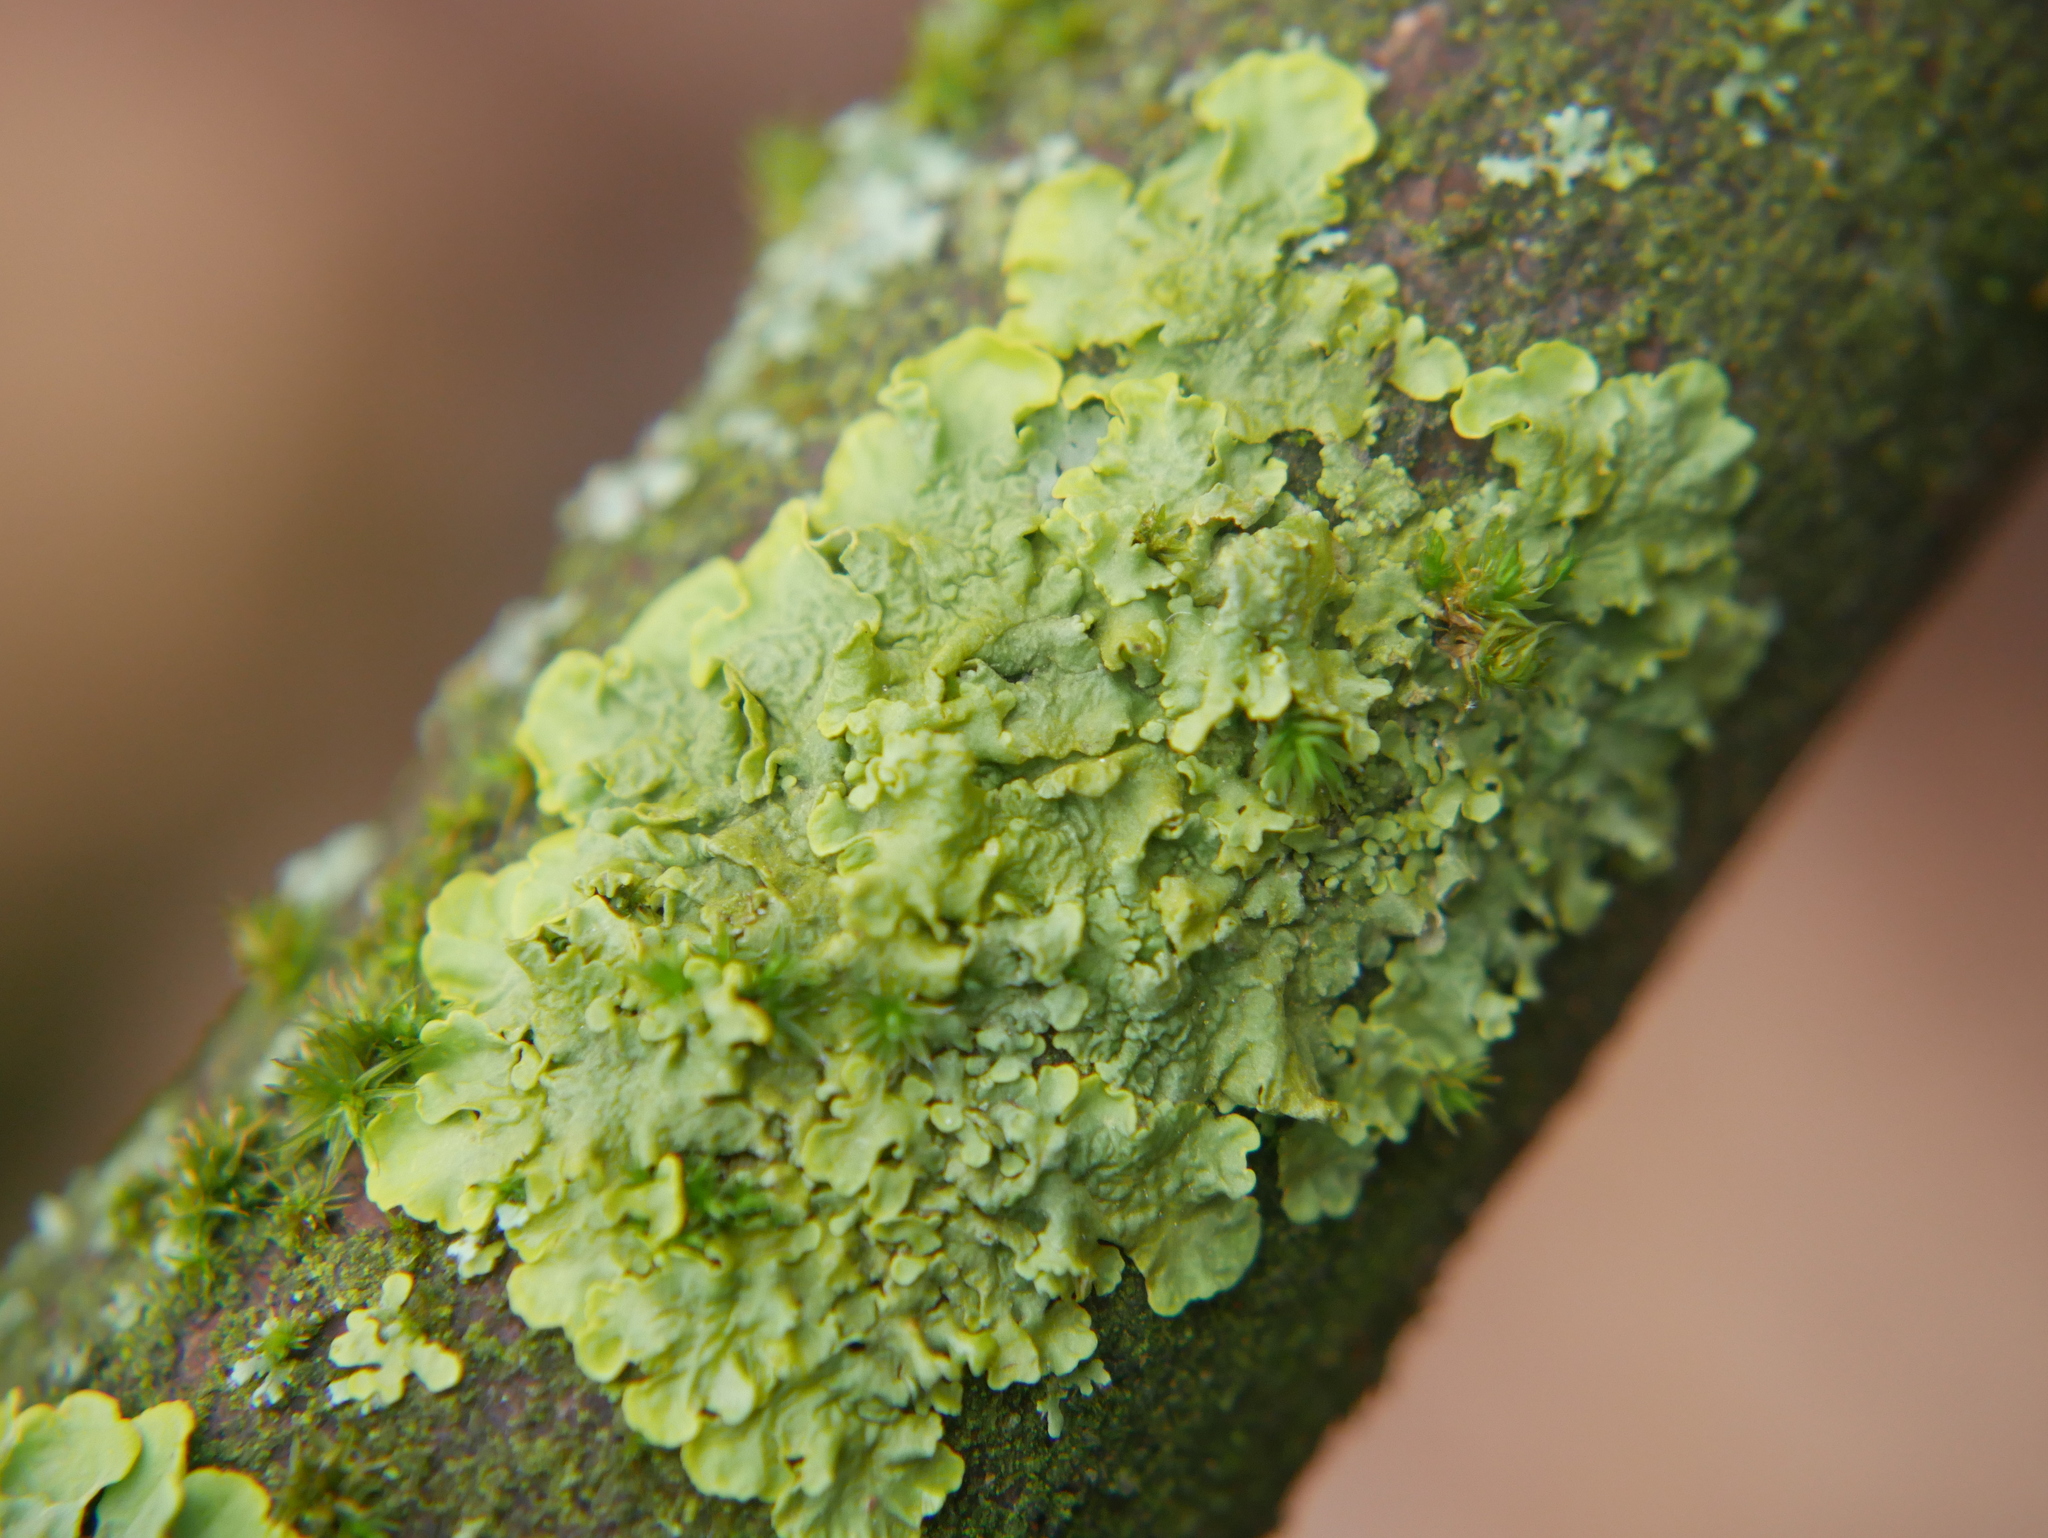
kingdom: Fungi
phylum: Ascomycota
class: Lecanoromycetes
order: Teloschistales
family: Teloschistaceae
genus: Xanthoria
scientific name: Xanthoria parietina
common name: Common orange lichen
